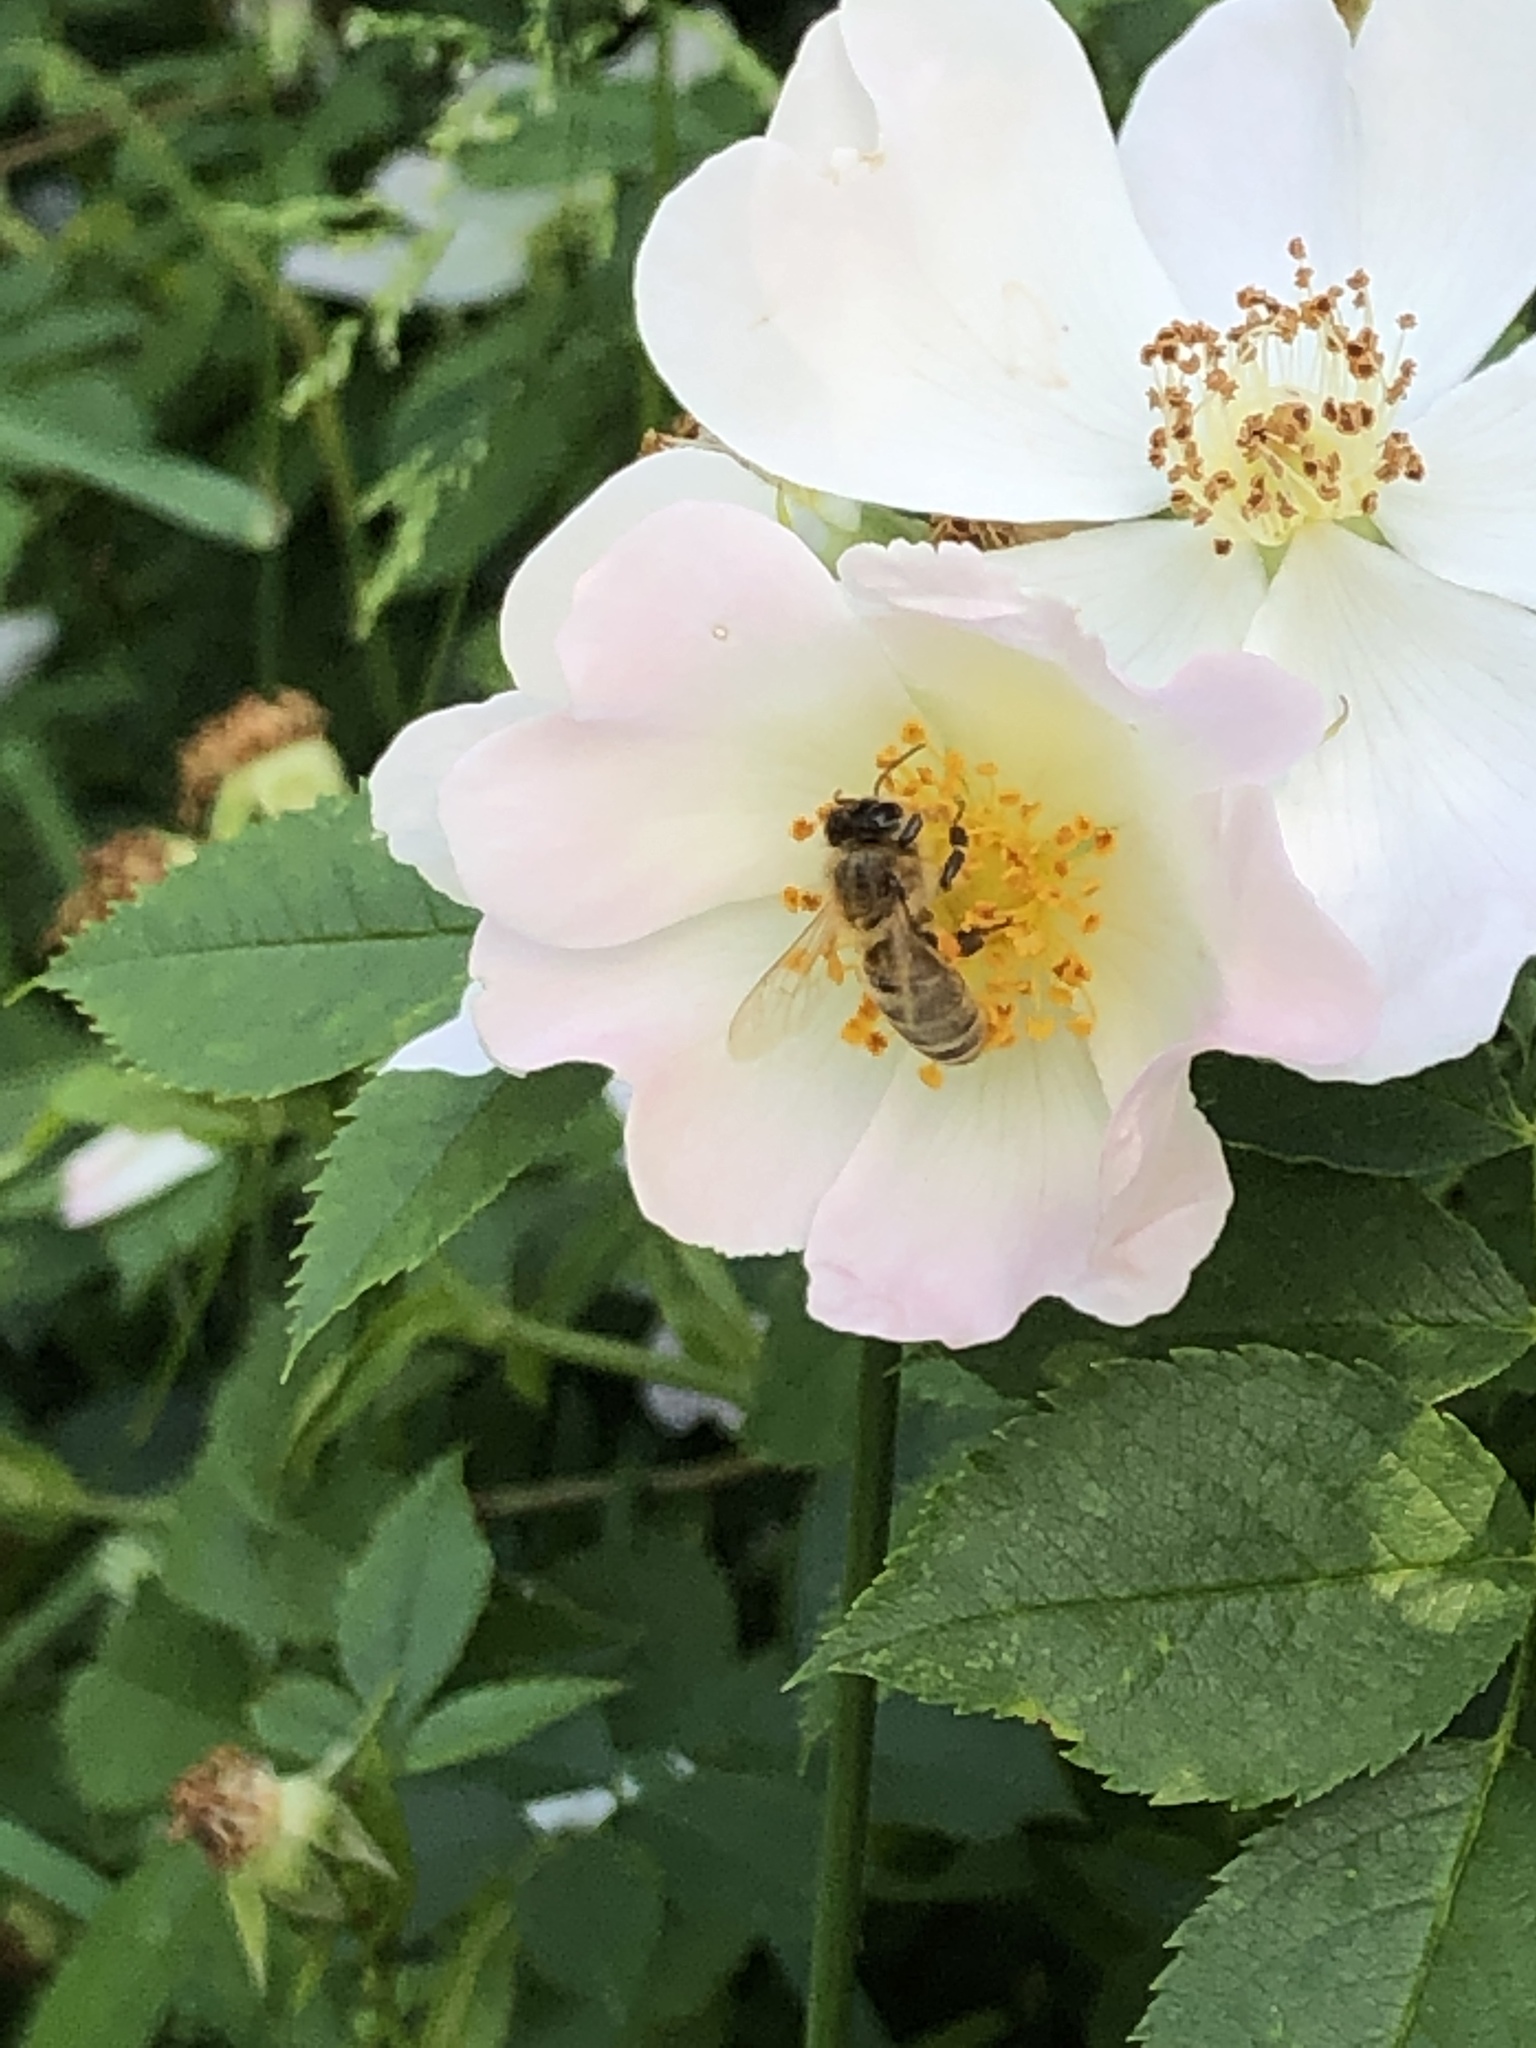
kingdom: Animalia
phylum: Arthropoda
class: Insecta
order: Hymenoptera
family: Apidae
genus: Apis
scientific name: Apis mellifera
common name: Honey bee
